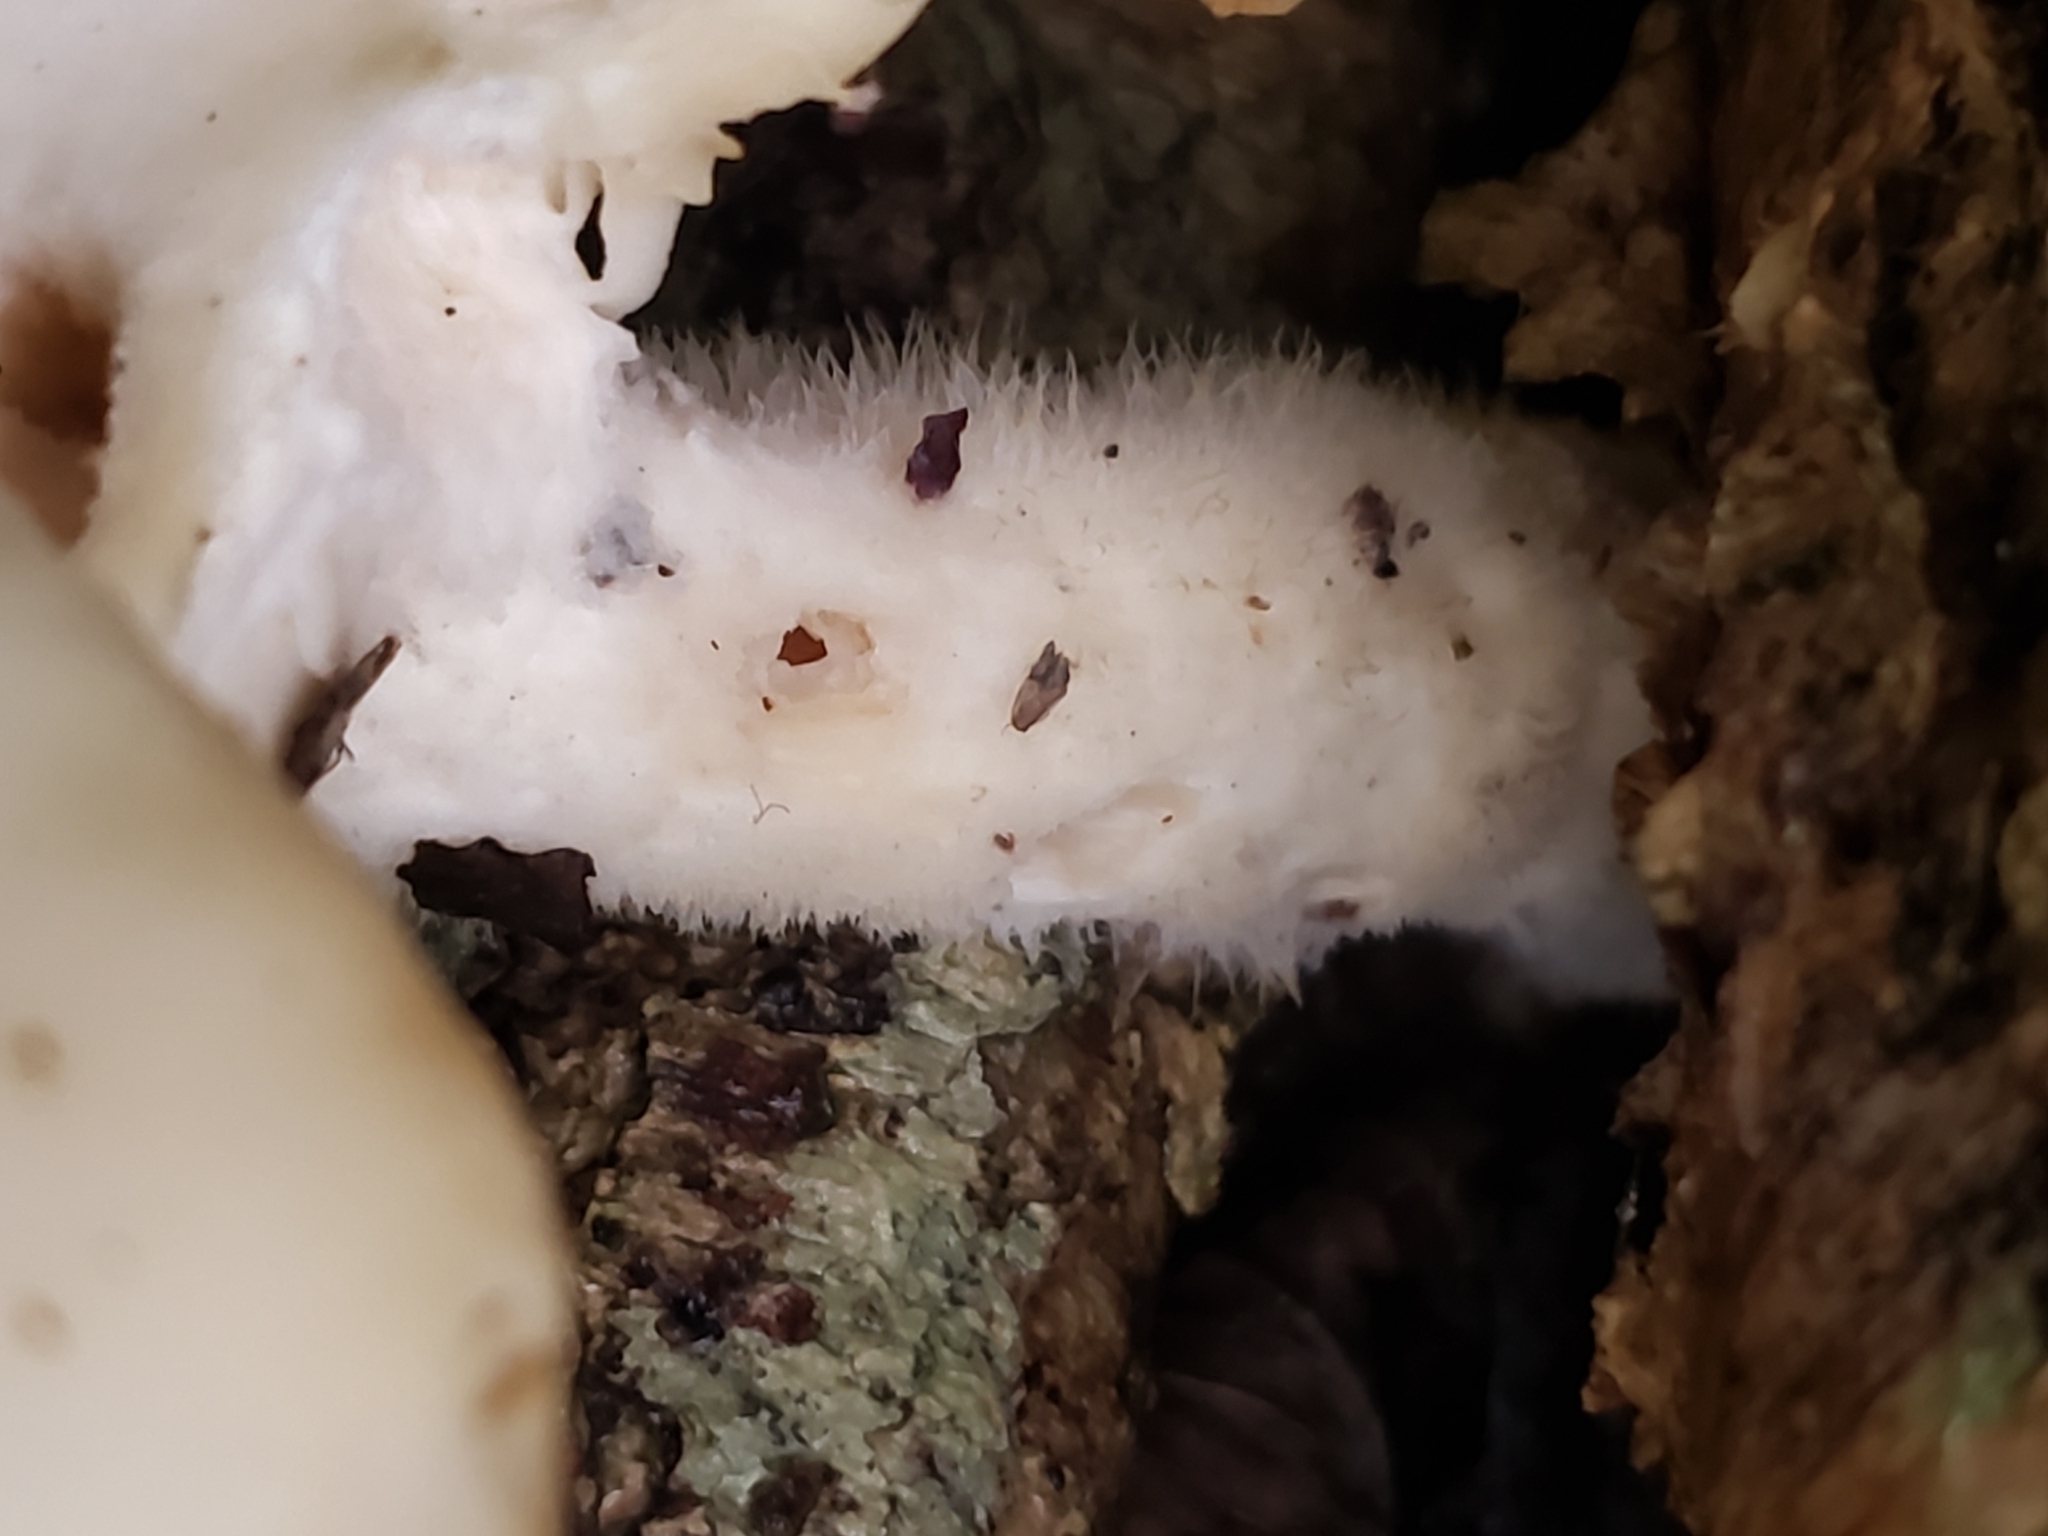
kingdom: Fungi
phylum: Basidiomycota
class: Agaricomycetes
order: Polyporales
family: Polyporaceae
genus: Lentinus
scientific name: Lentinus levis
